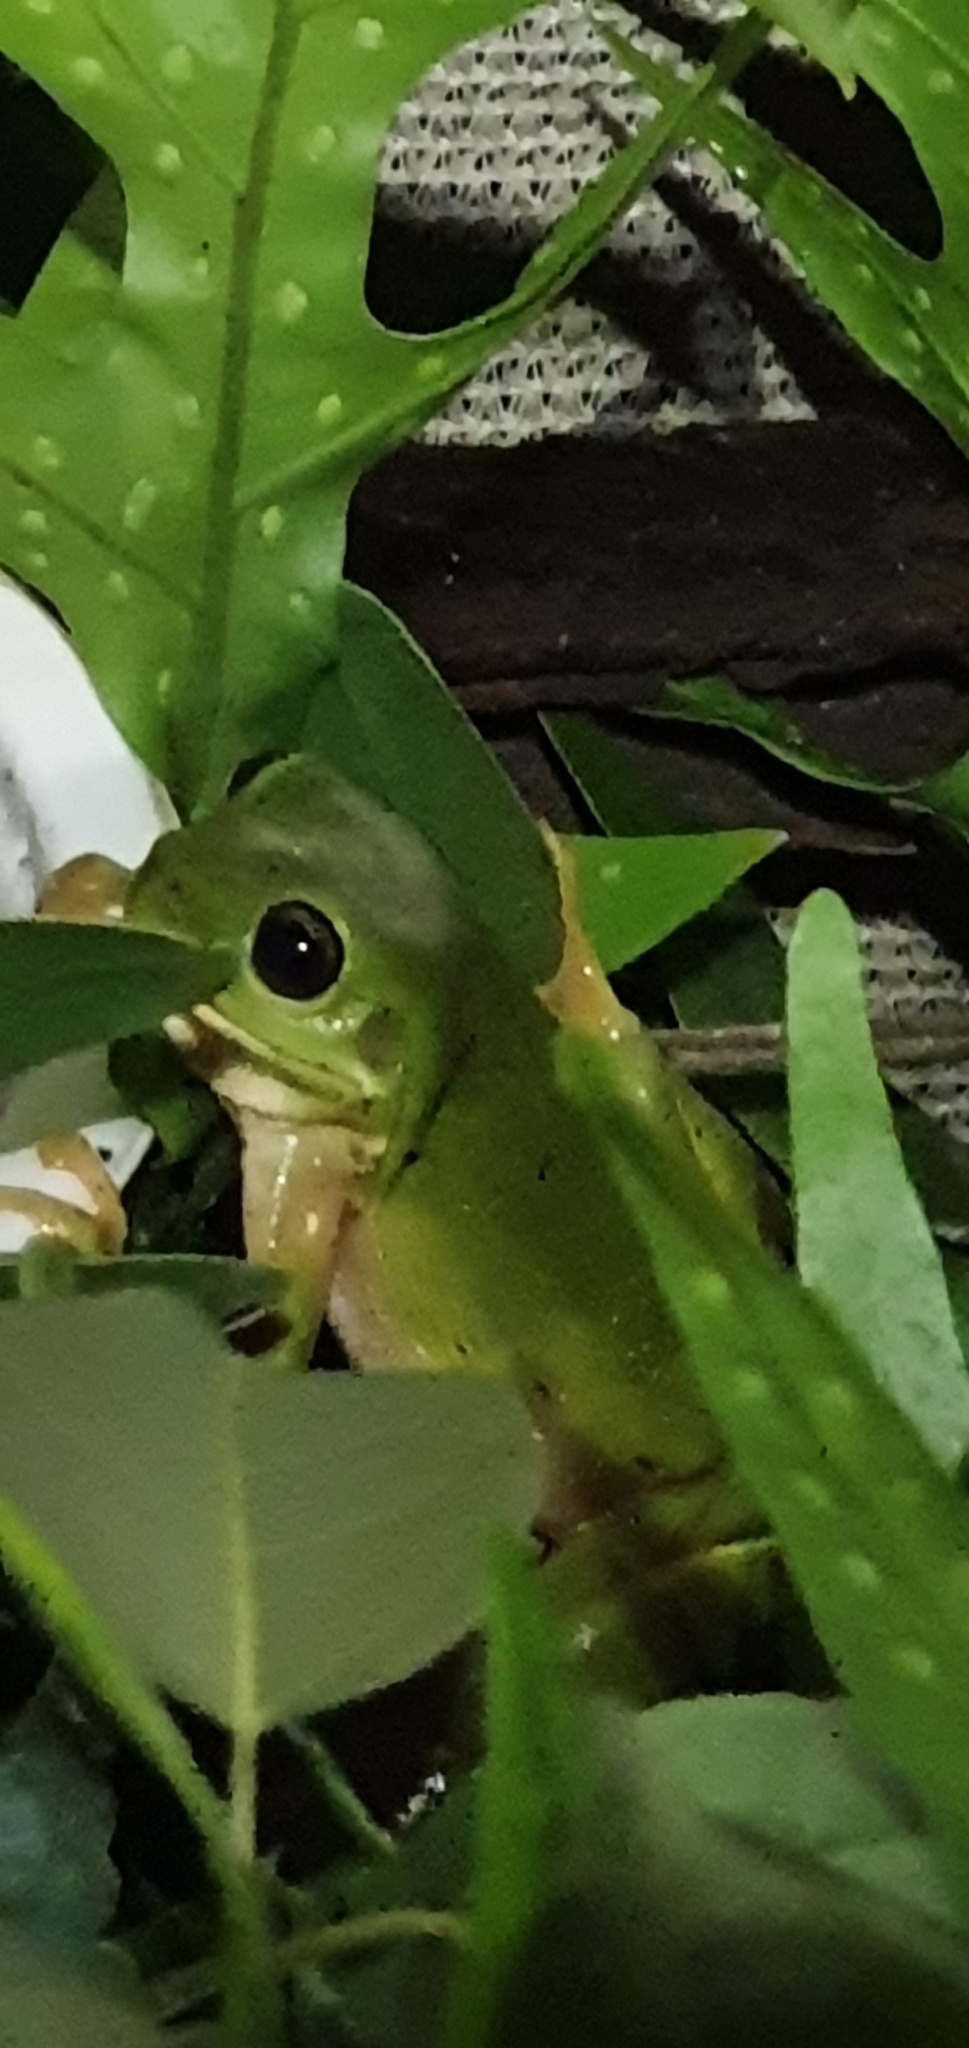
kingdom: Animalia
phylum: Chordata
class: Amphibia
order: Anura
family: Pelodryadidae
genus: Ranoidea
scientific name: Ranoidea caerulea
